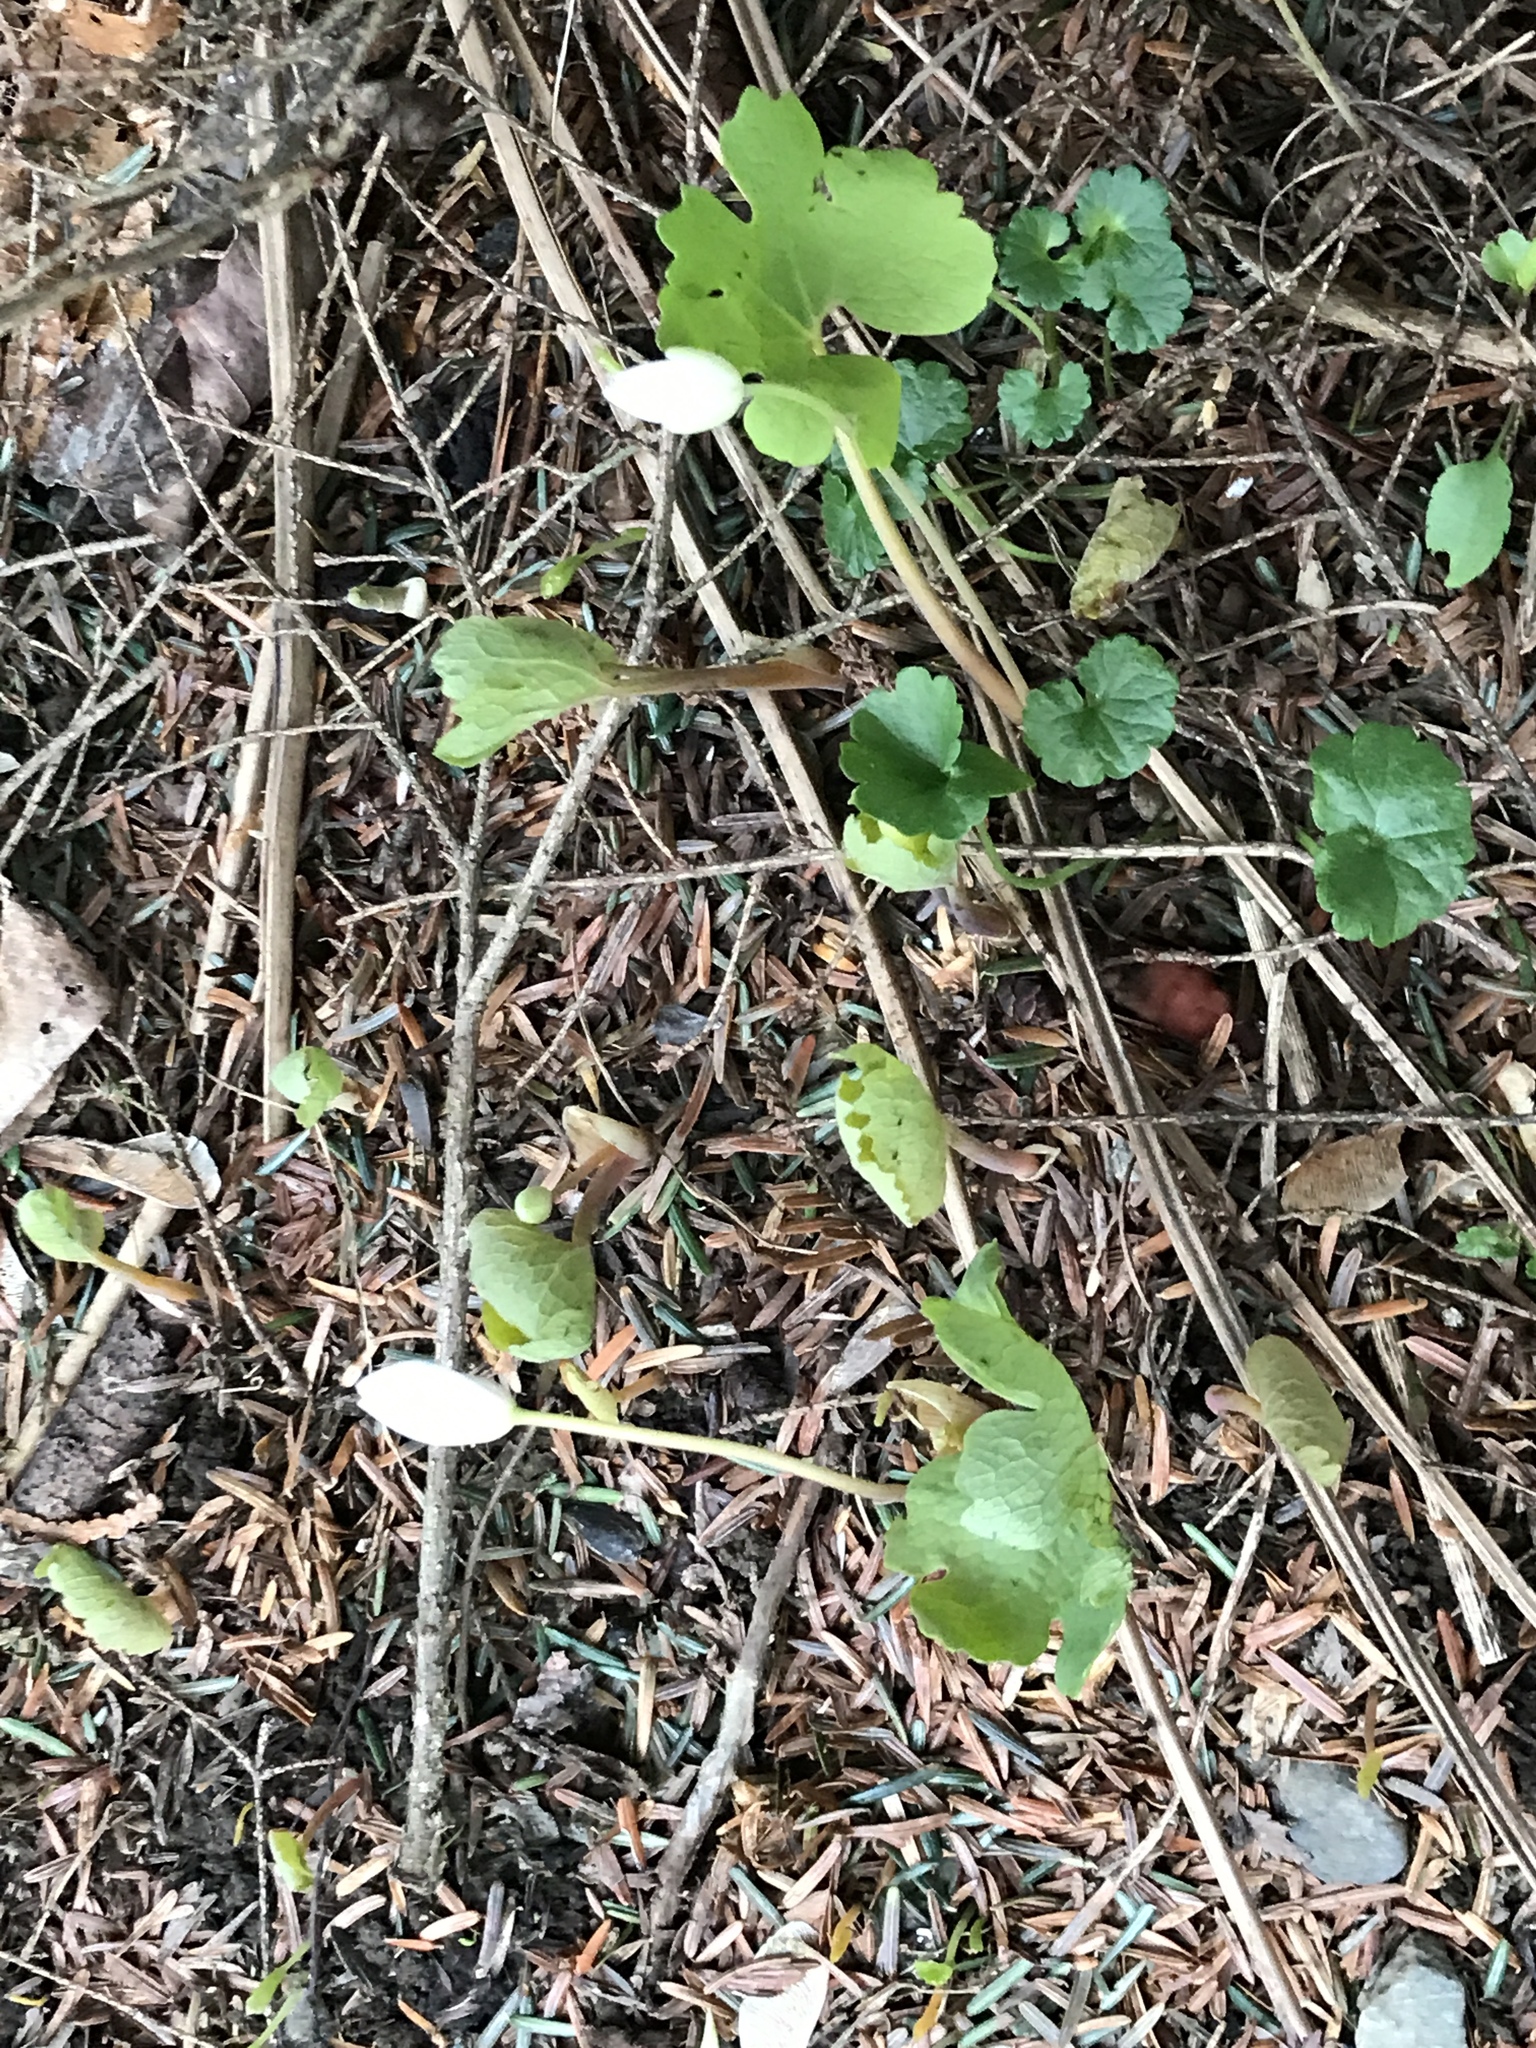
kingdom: Plantae
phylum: Tracheophyta
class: Magnoliopsida
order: Ranunculales
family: Papaveraceae
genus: Sanguinaria
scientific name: Sanguinaria canadensis
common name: Bloodroot
